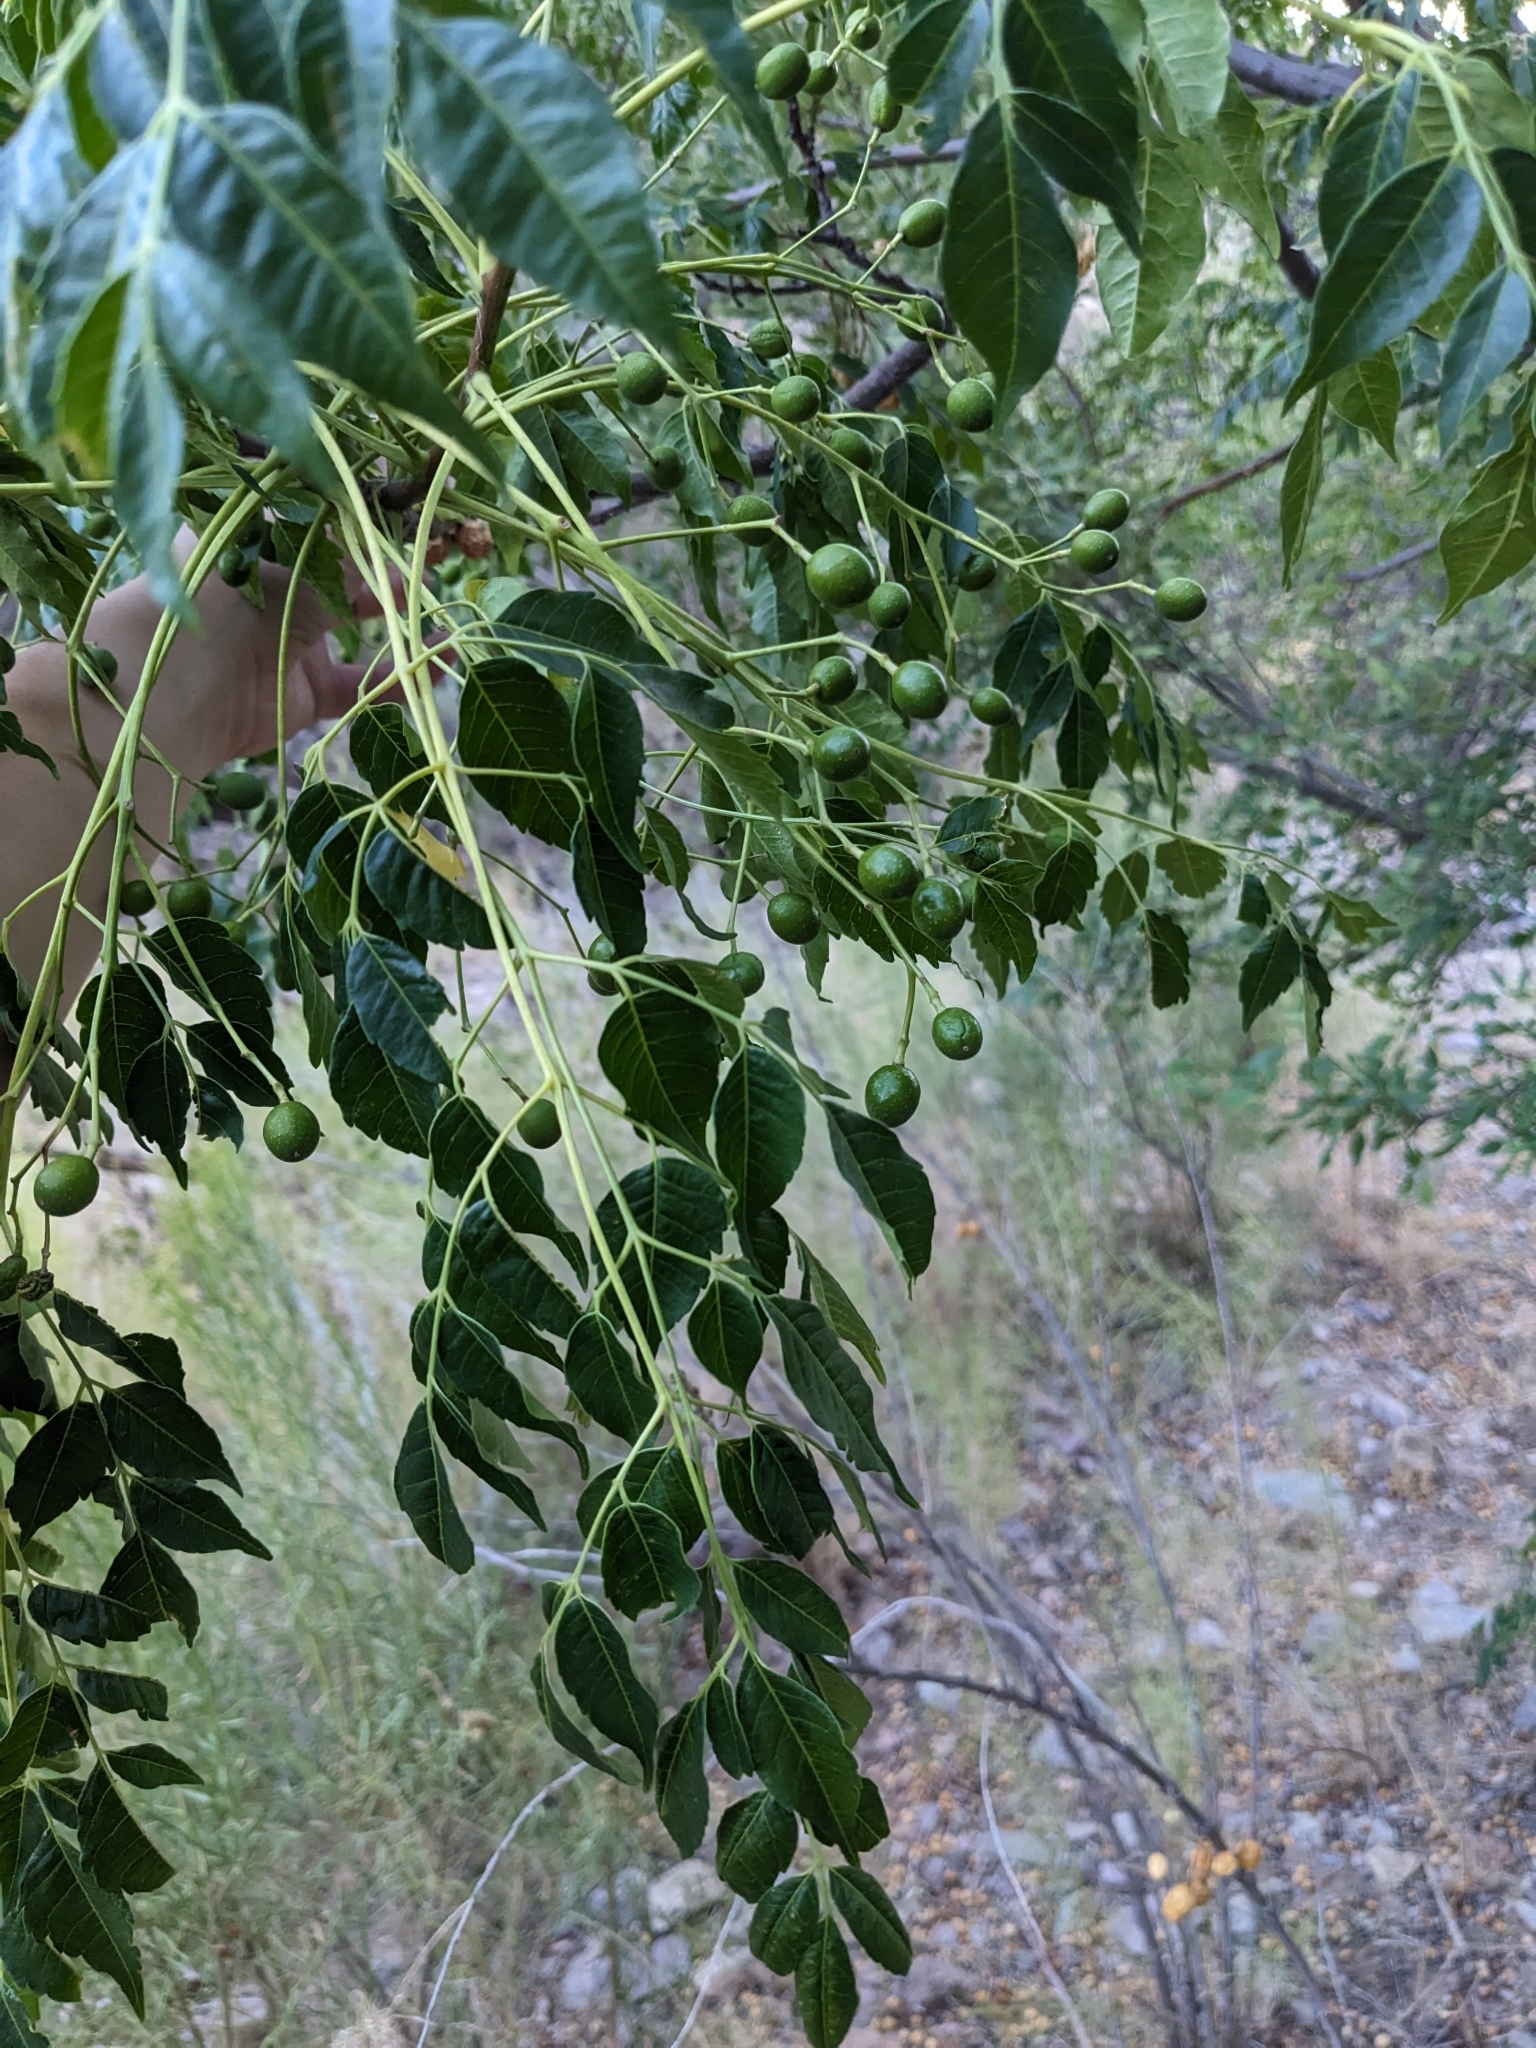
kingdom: Plantae
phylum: Tracheophyta
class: Magnoliopsida
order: Sapindales
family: Meliaceae
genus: Melia
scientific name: Melia azedarach
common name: Chinaberrytree
